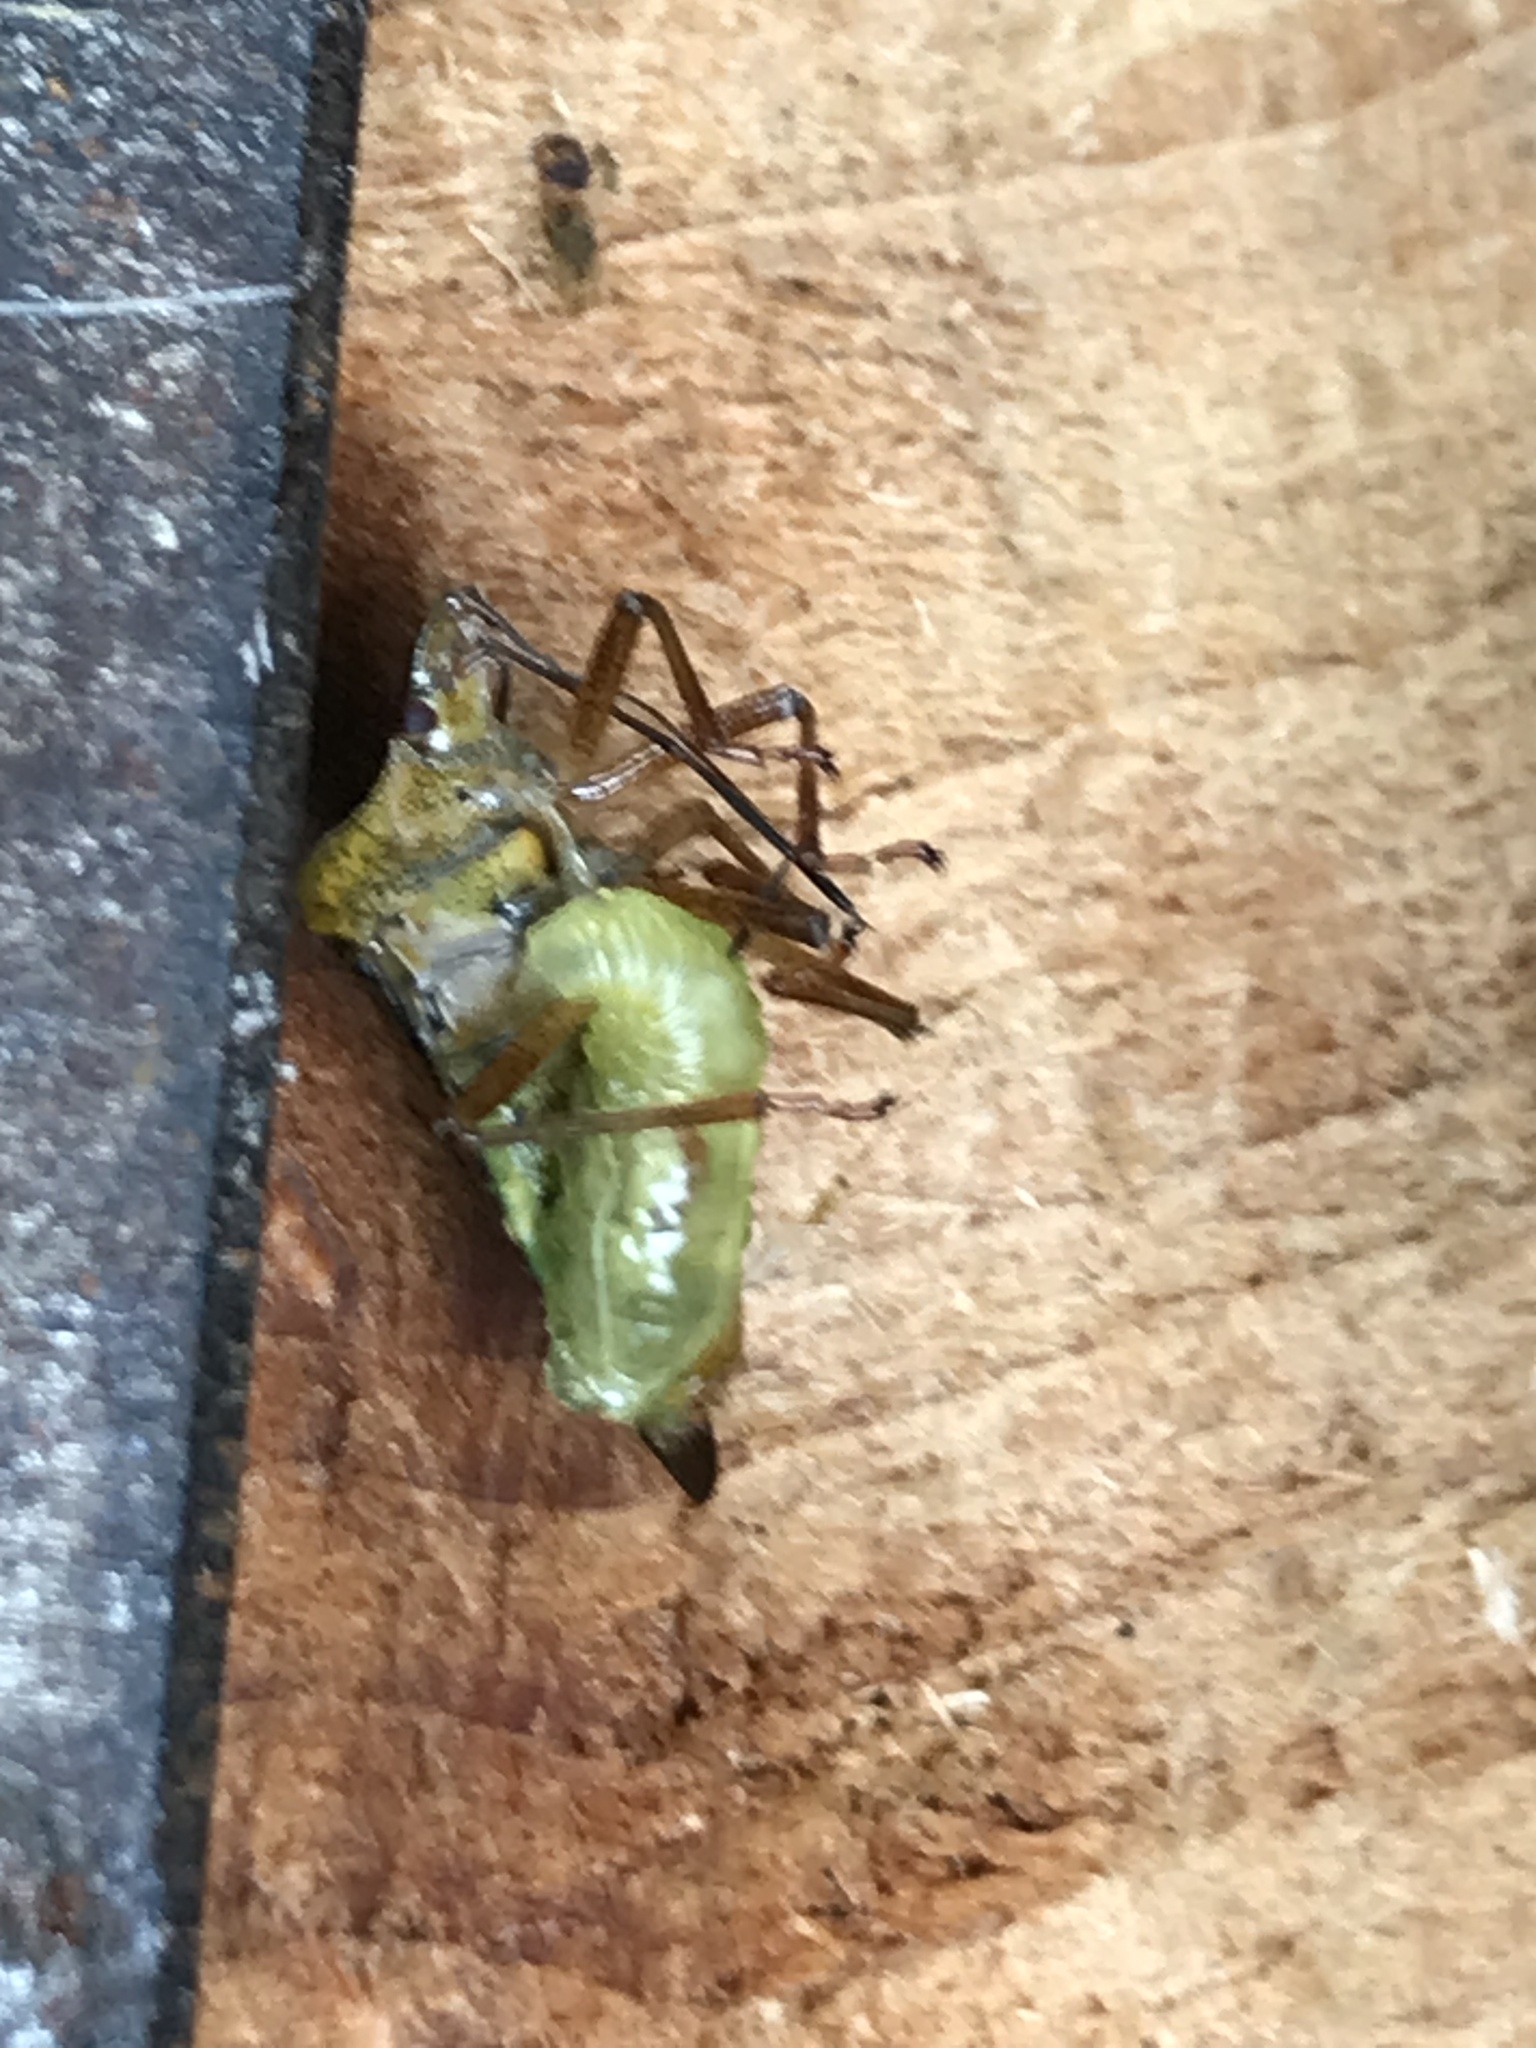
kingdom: Animalia
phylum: Arthropoda
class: Insecta
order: Hemiptera
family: Pentatomidae
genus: Pentatoma
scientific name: Pentatoma rufipes
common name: Forest bug
